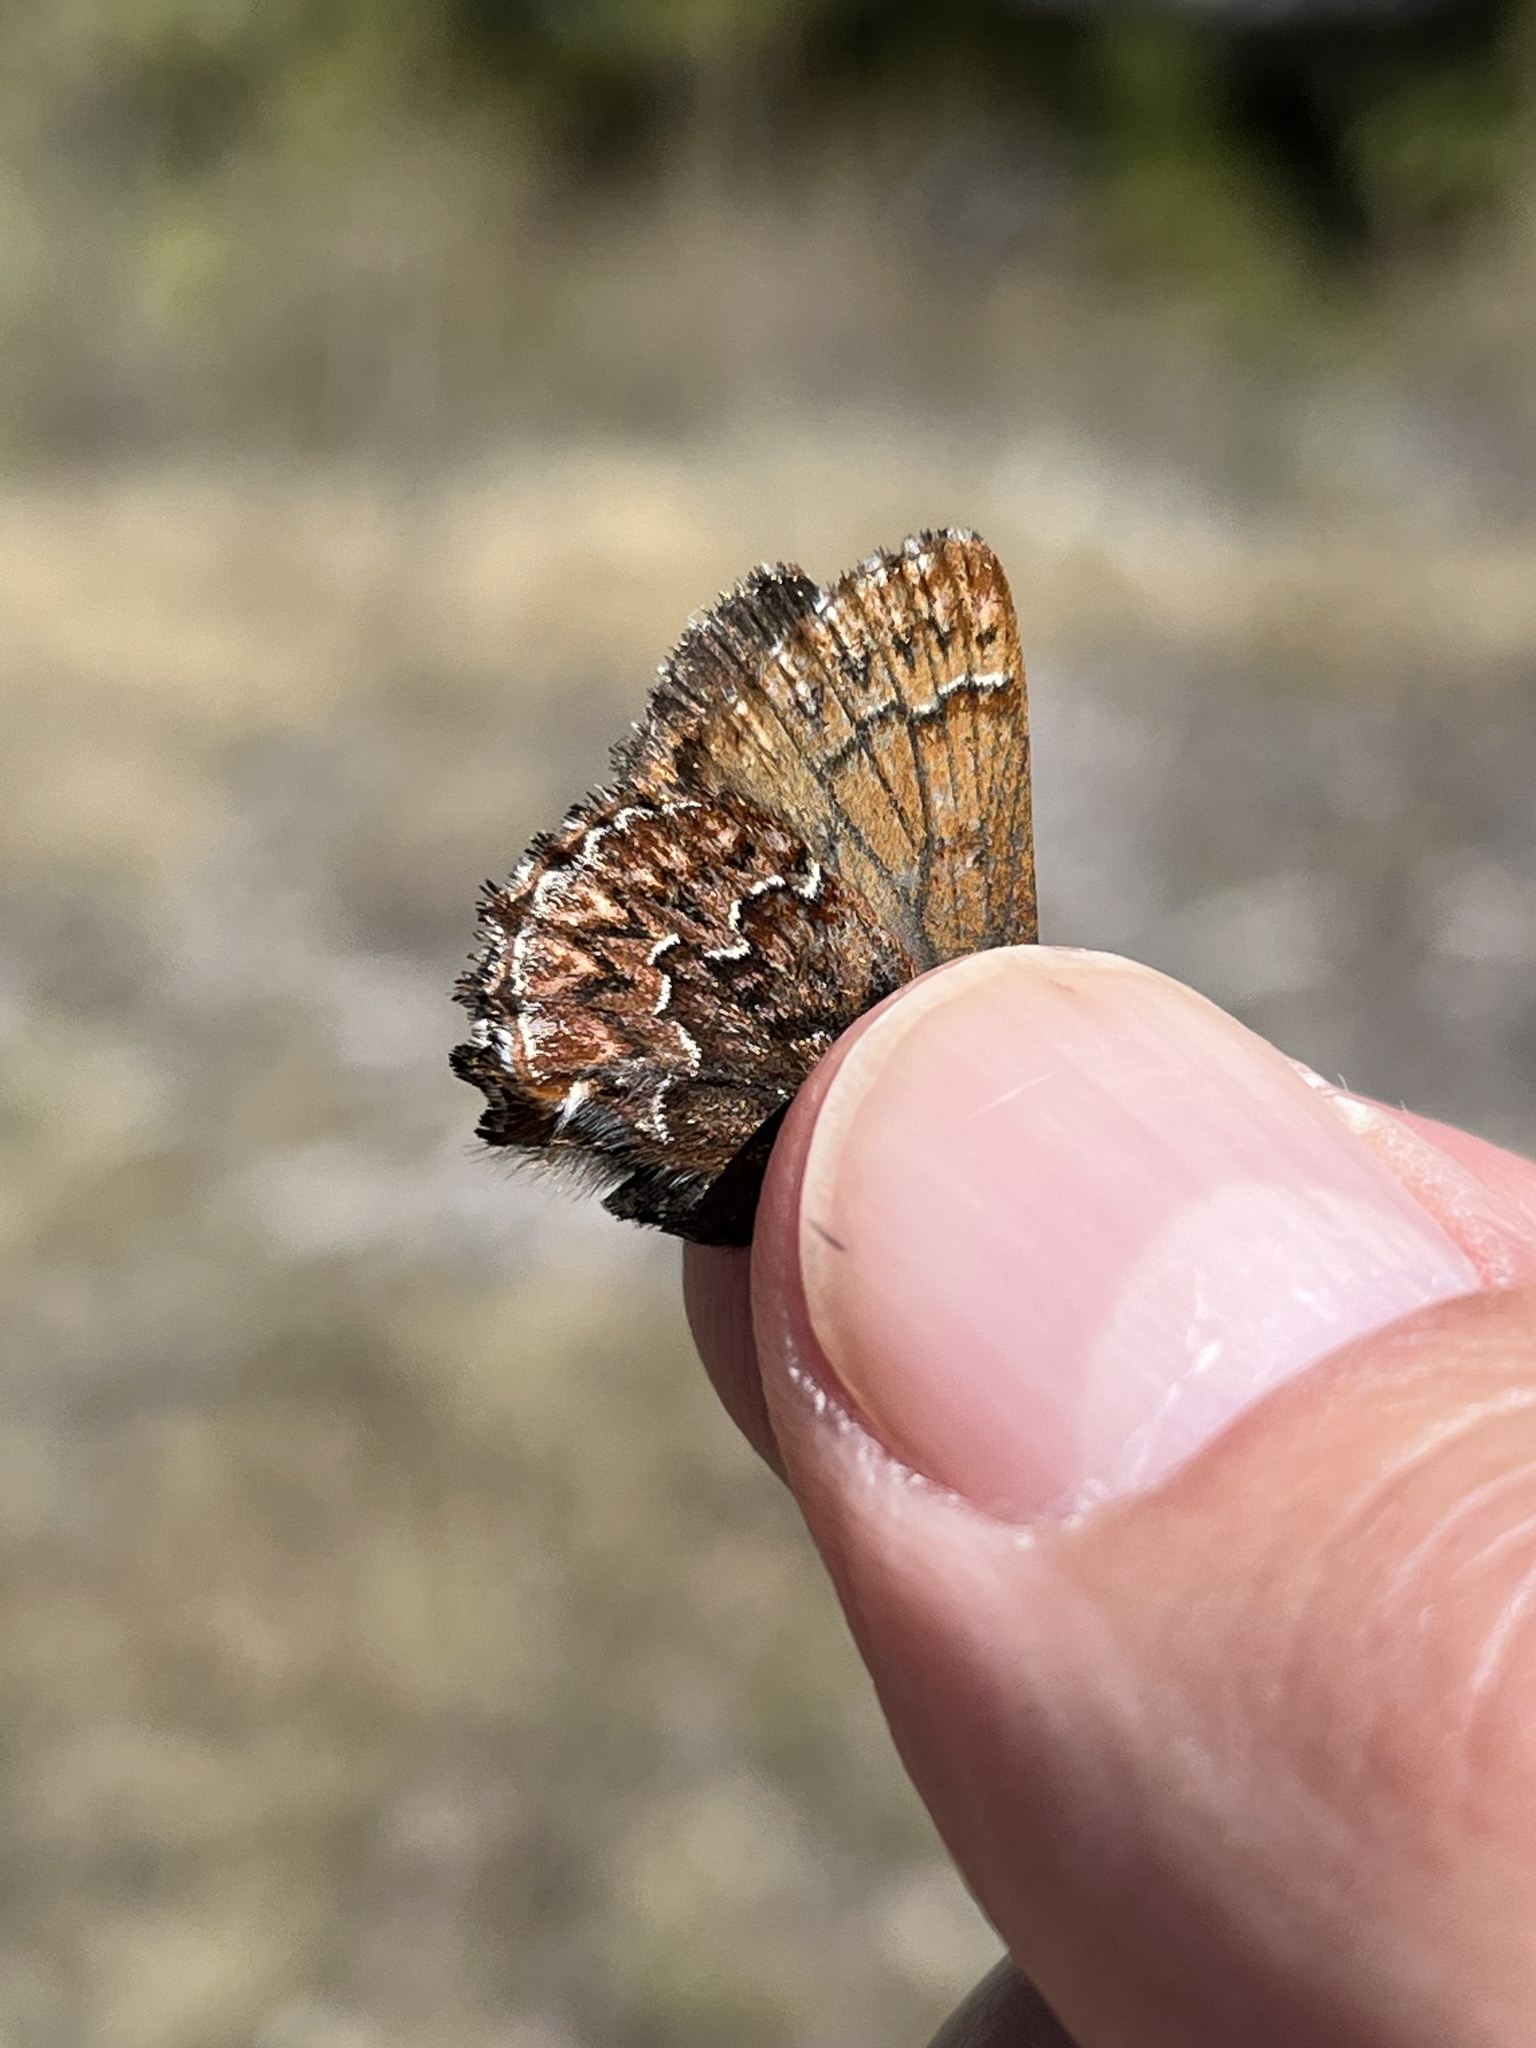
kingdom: Animalia
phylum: Arthropoda
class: Insecta
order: Lepidoptera
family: Lycaenidae
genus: Incisalia
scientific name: Incisalia eryphon
